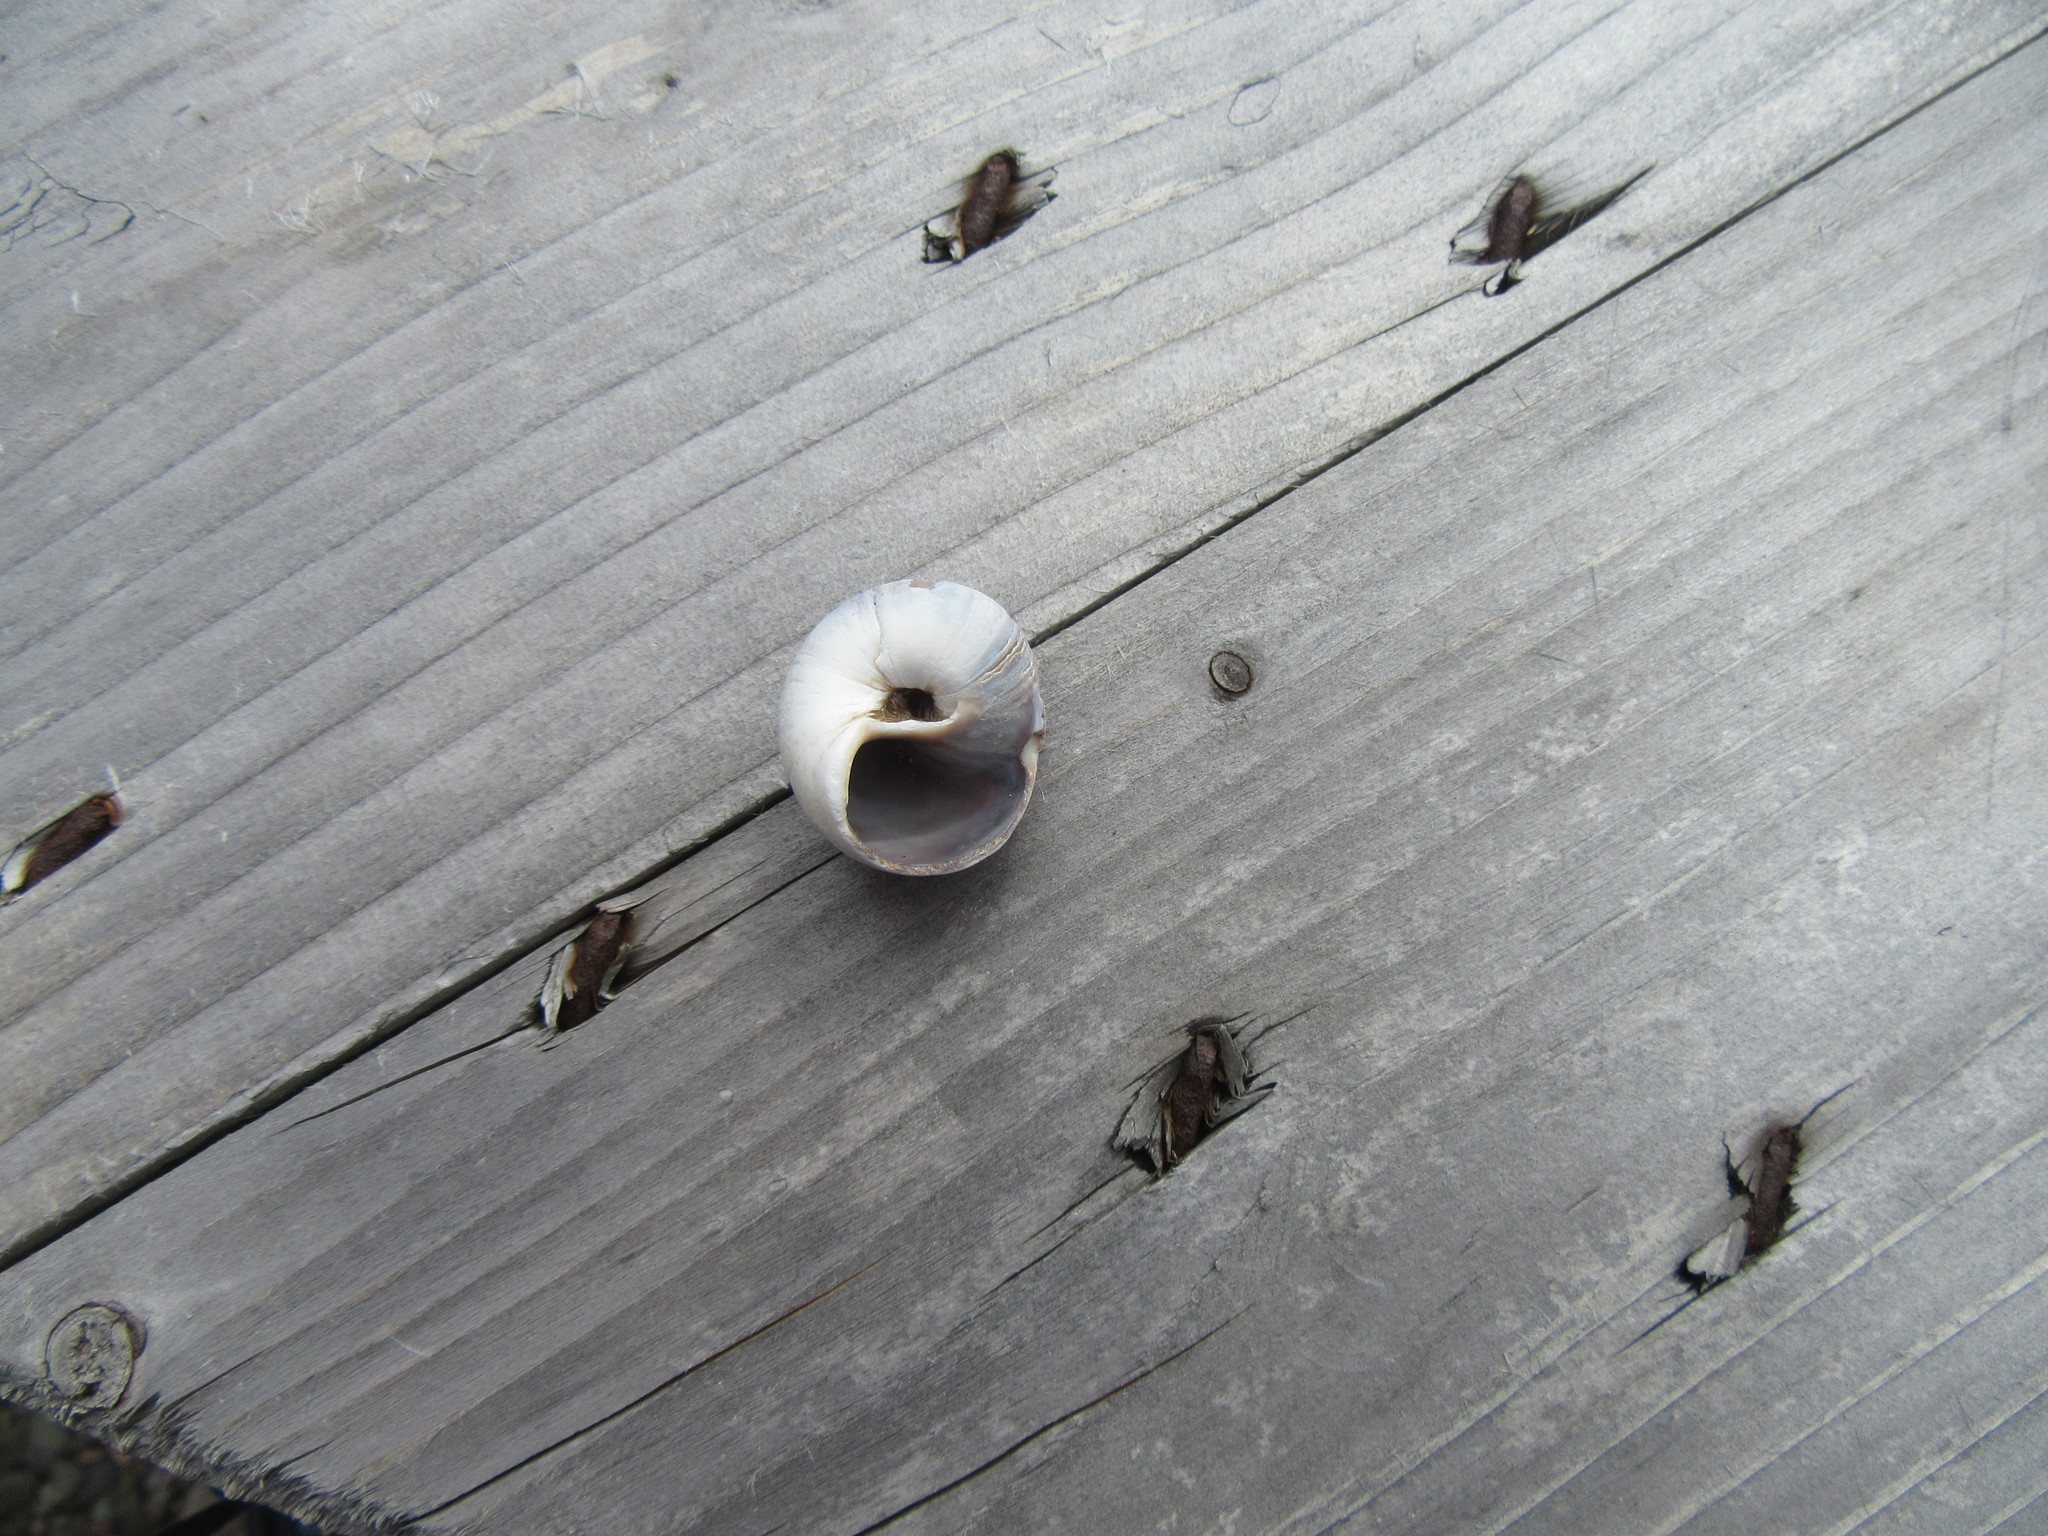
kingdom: Animalia
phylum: Mollusca
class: Gastropoda
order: Littorinimorpha
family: Naticidae
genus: Euspira
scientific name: Euspira heros
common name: Common northern moonsnail
